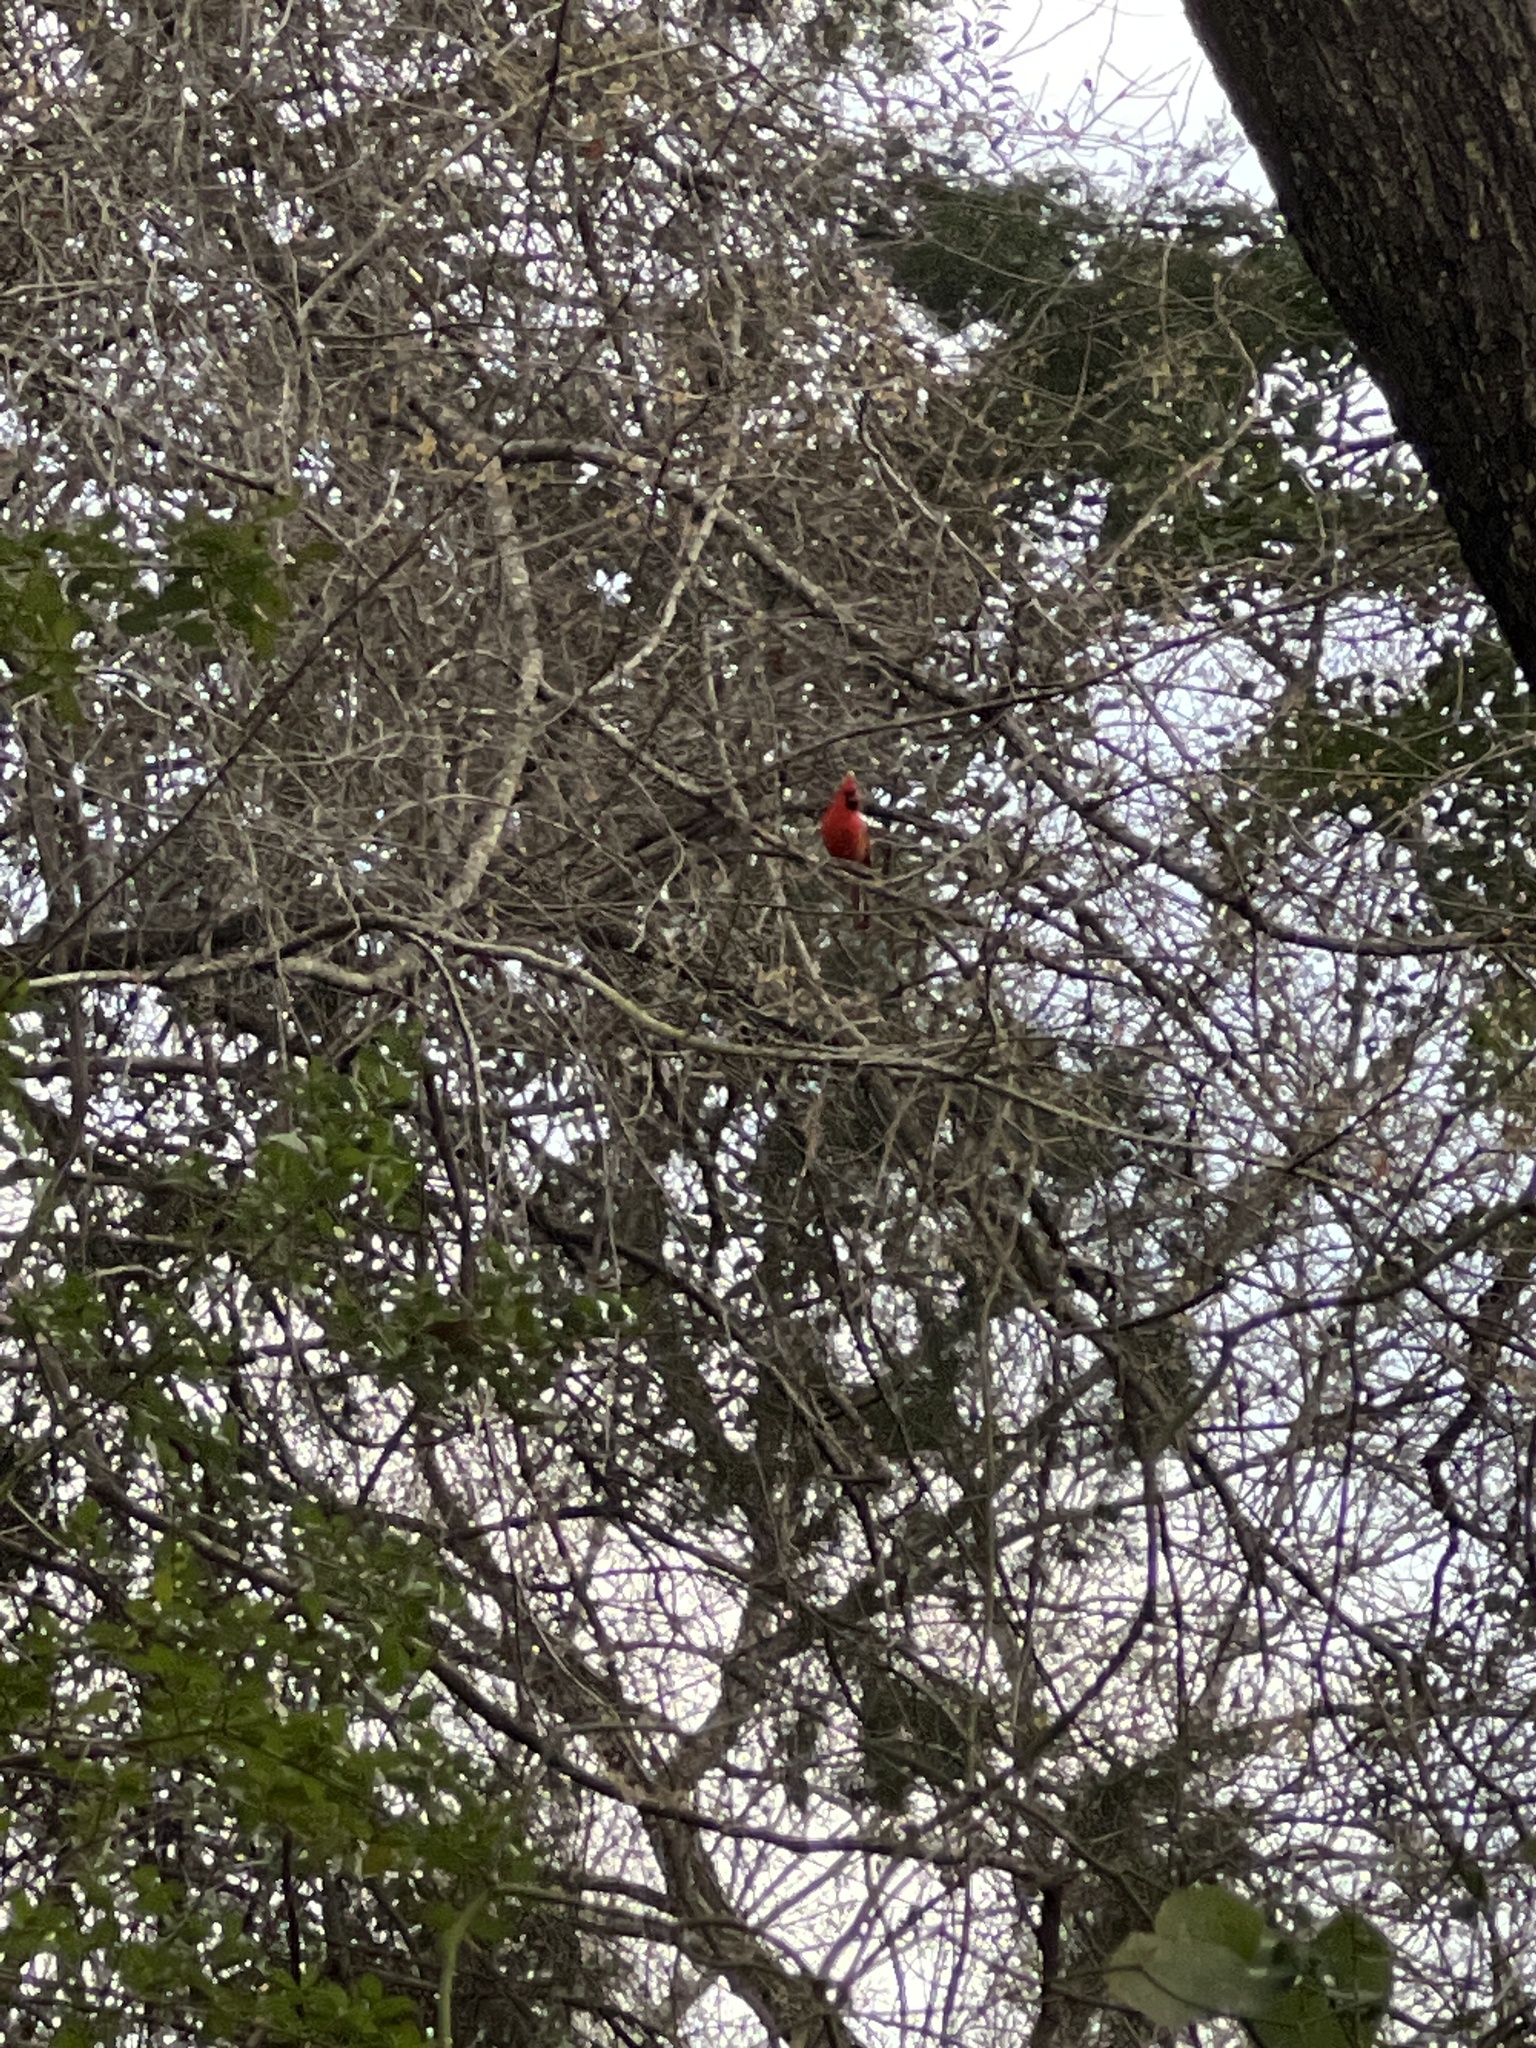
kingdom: Animalia
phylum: Chordata
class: Aves
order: Passeriformes
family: Cardinalidae
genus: Cardinalis
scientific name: Cardinalis cardinalis
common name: Northern cardinal
